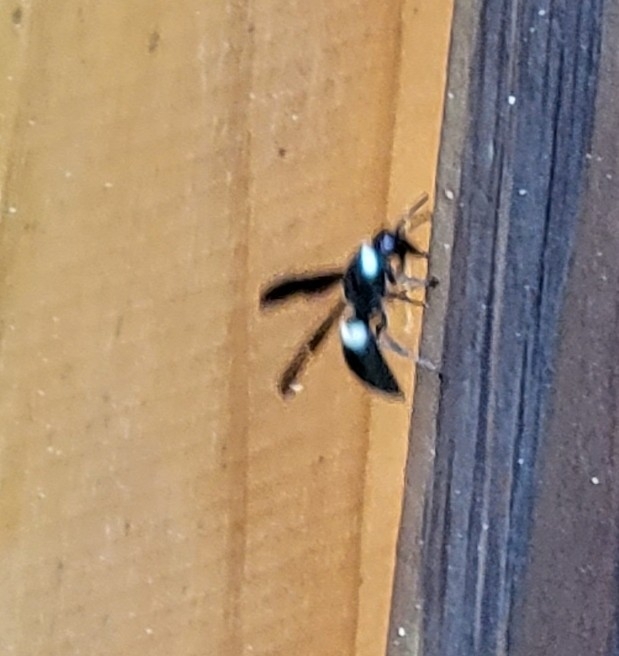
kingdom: Animalia
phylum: Arthropoda
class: Insecta
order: Hymenoptera
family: Eumenidae
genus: Monobia
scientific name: Monobia quadridens
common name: Four-toothed mason wasp
